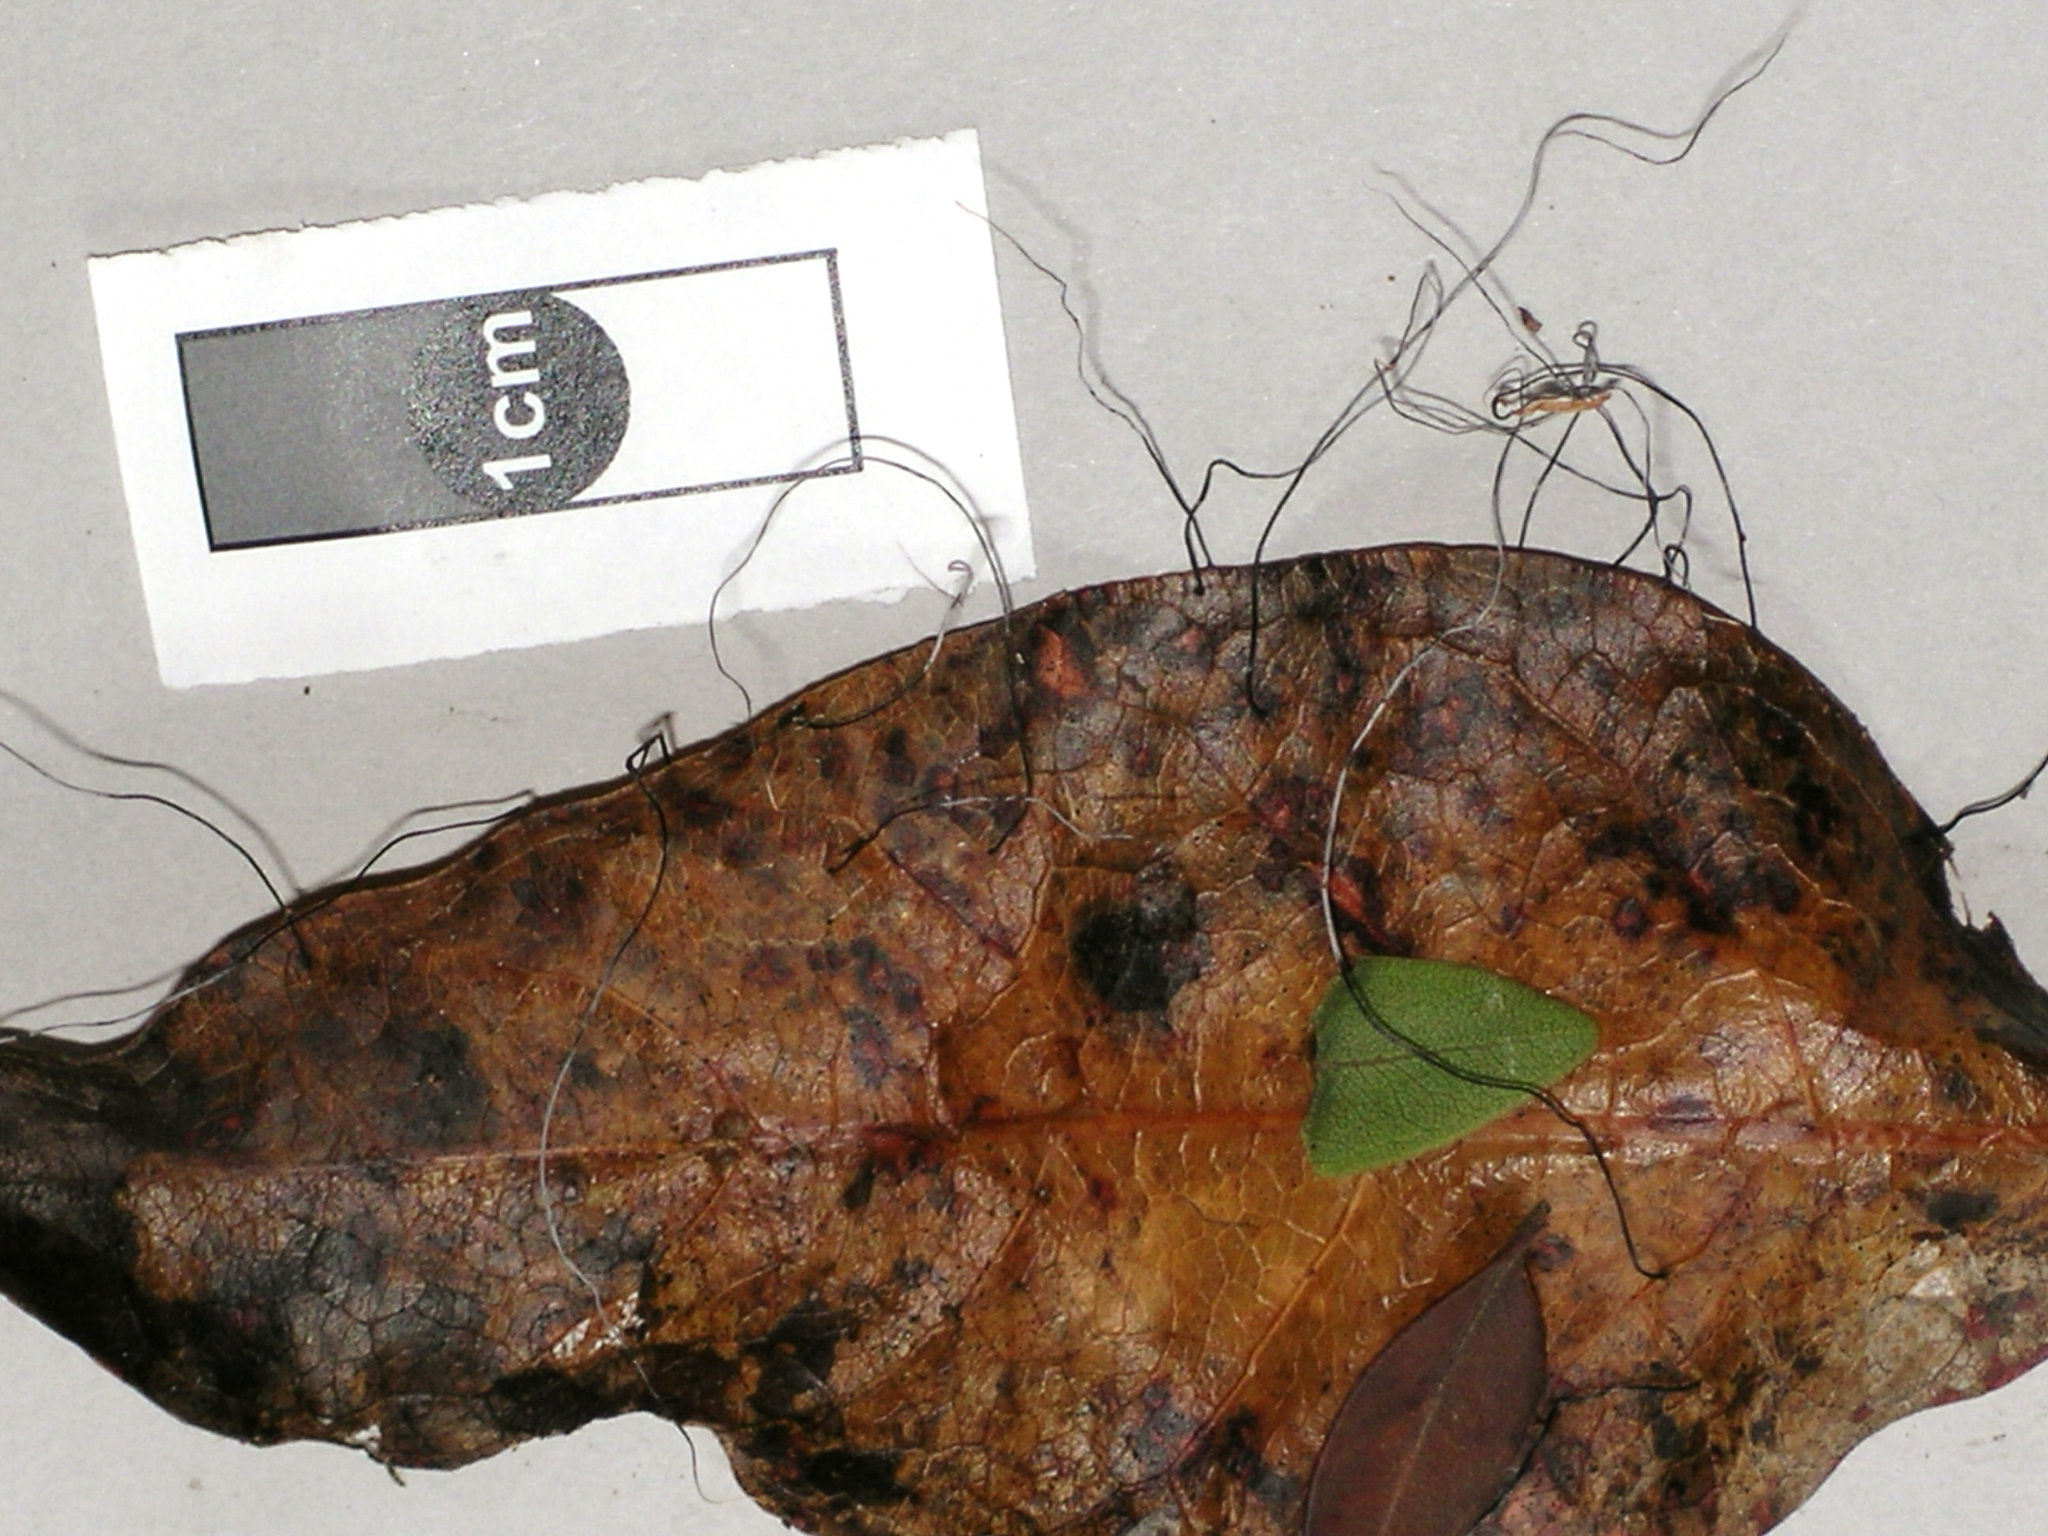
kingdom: Fungi
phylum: Ascomycota
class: Sordariomycetes
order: Xylariales
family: Xylariaceae
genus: Xylaria
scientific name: Xylaria filiformis
